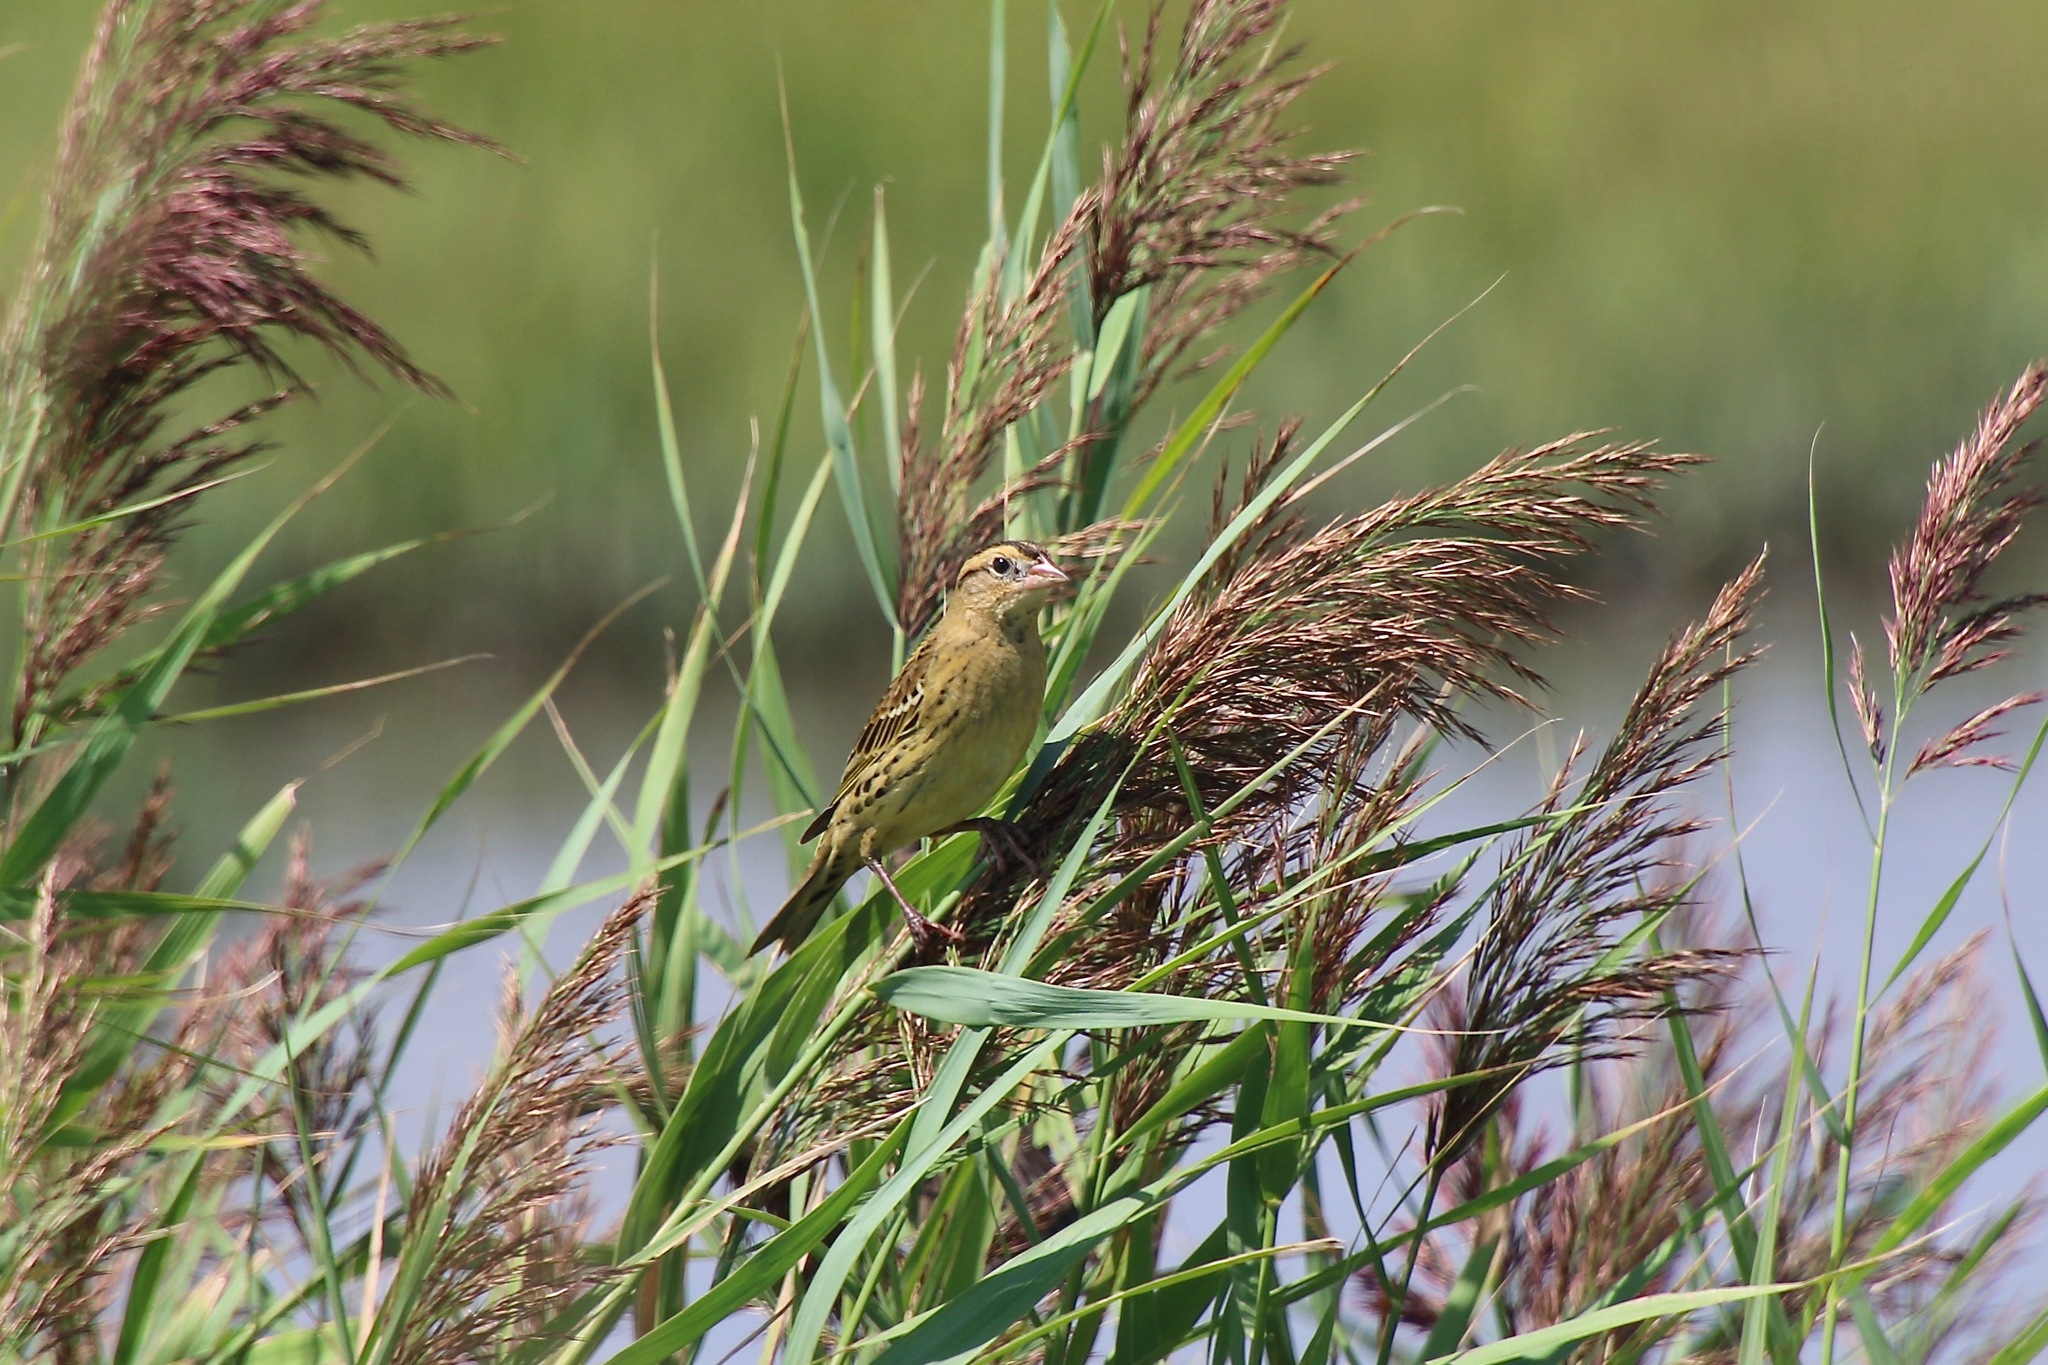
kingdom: Animalia
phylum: Chordata
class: Aves
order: Passeriformes
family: Icteridae
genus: Dolichonyx
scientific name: Dolichonyx oryzivorus
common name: Bobolink
